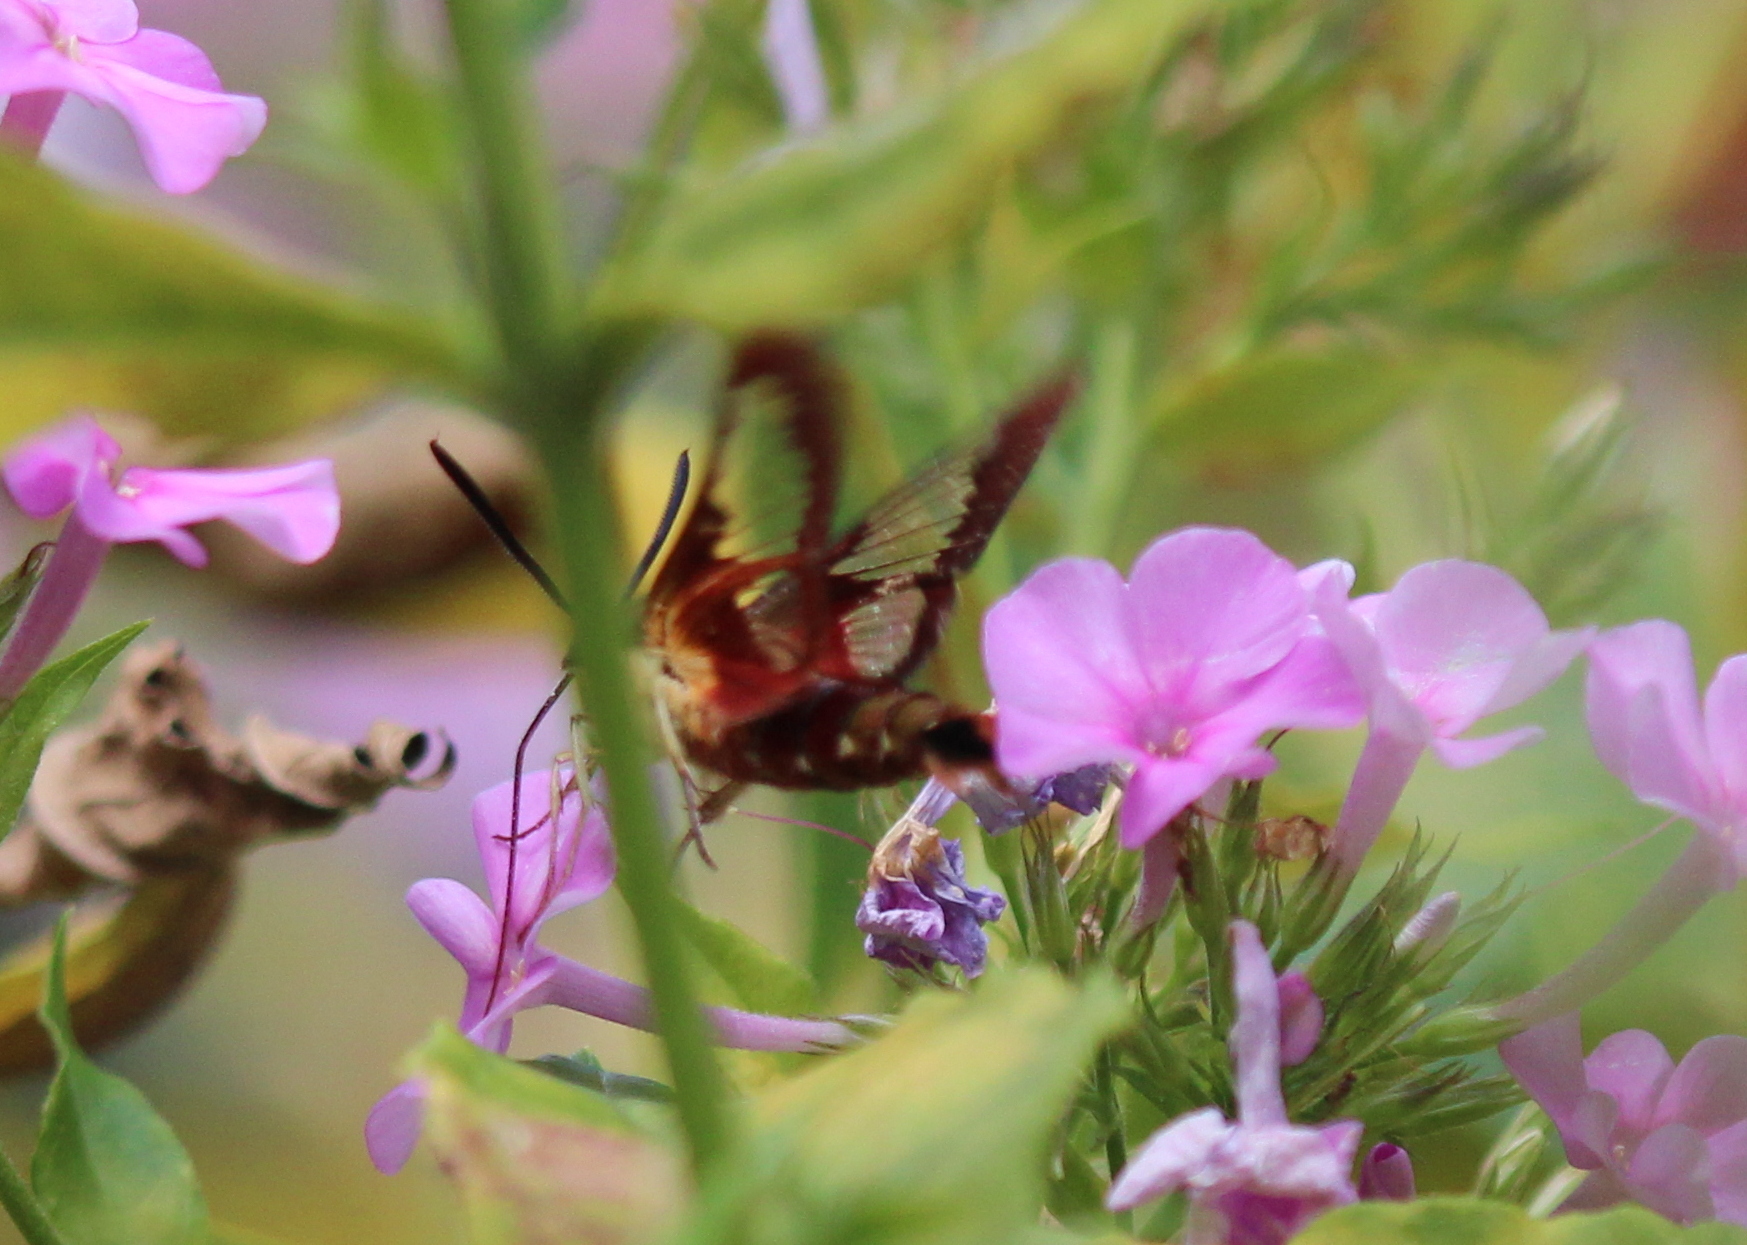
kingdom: Animalia
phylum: Arthropoda
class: Insecta
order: Lepidoptera
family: Sphingidae
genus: Hemaris
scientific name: Hemaris thysbe
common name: Common clear-wing
